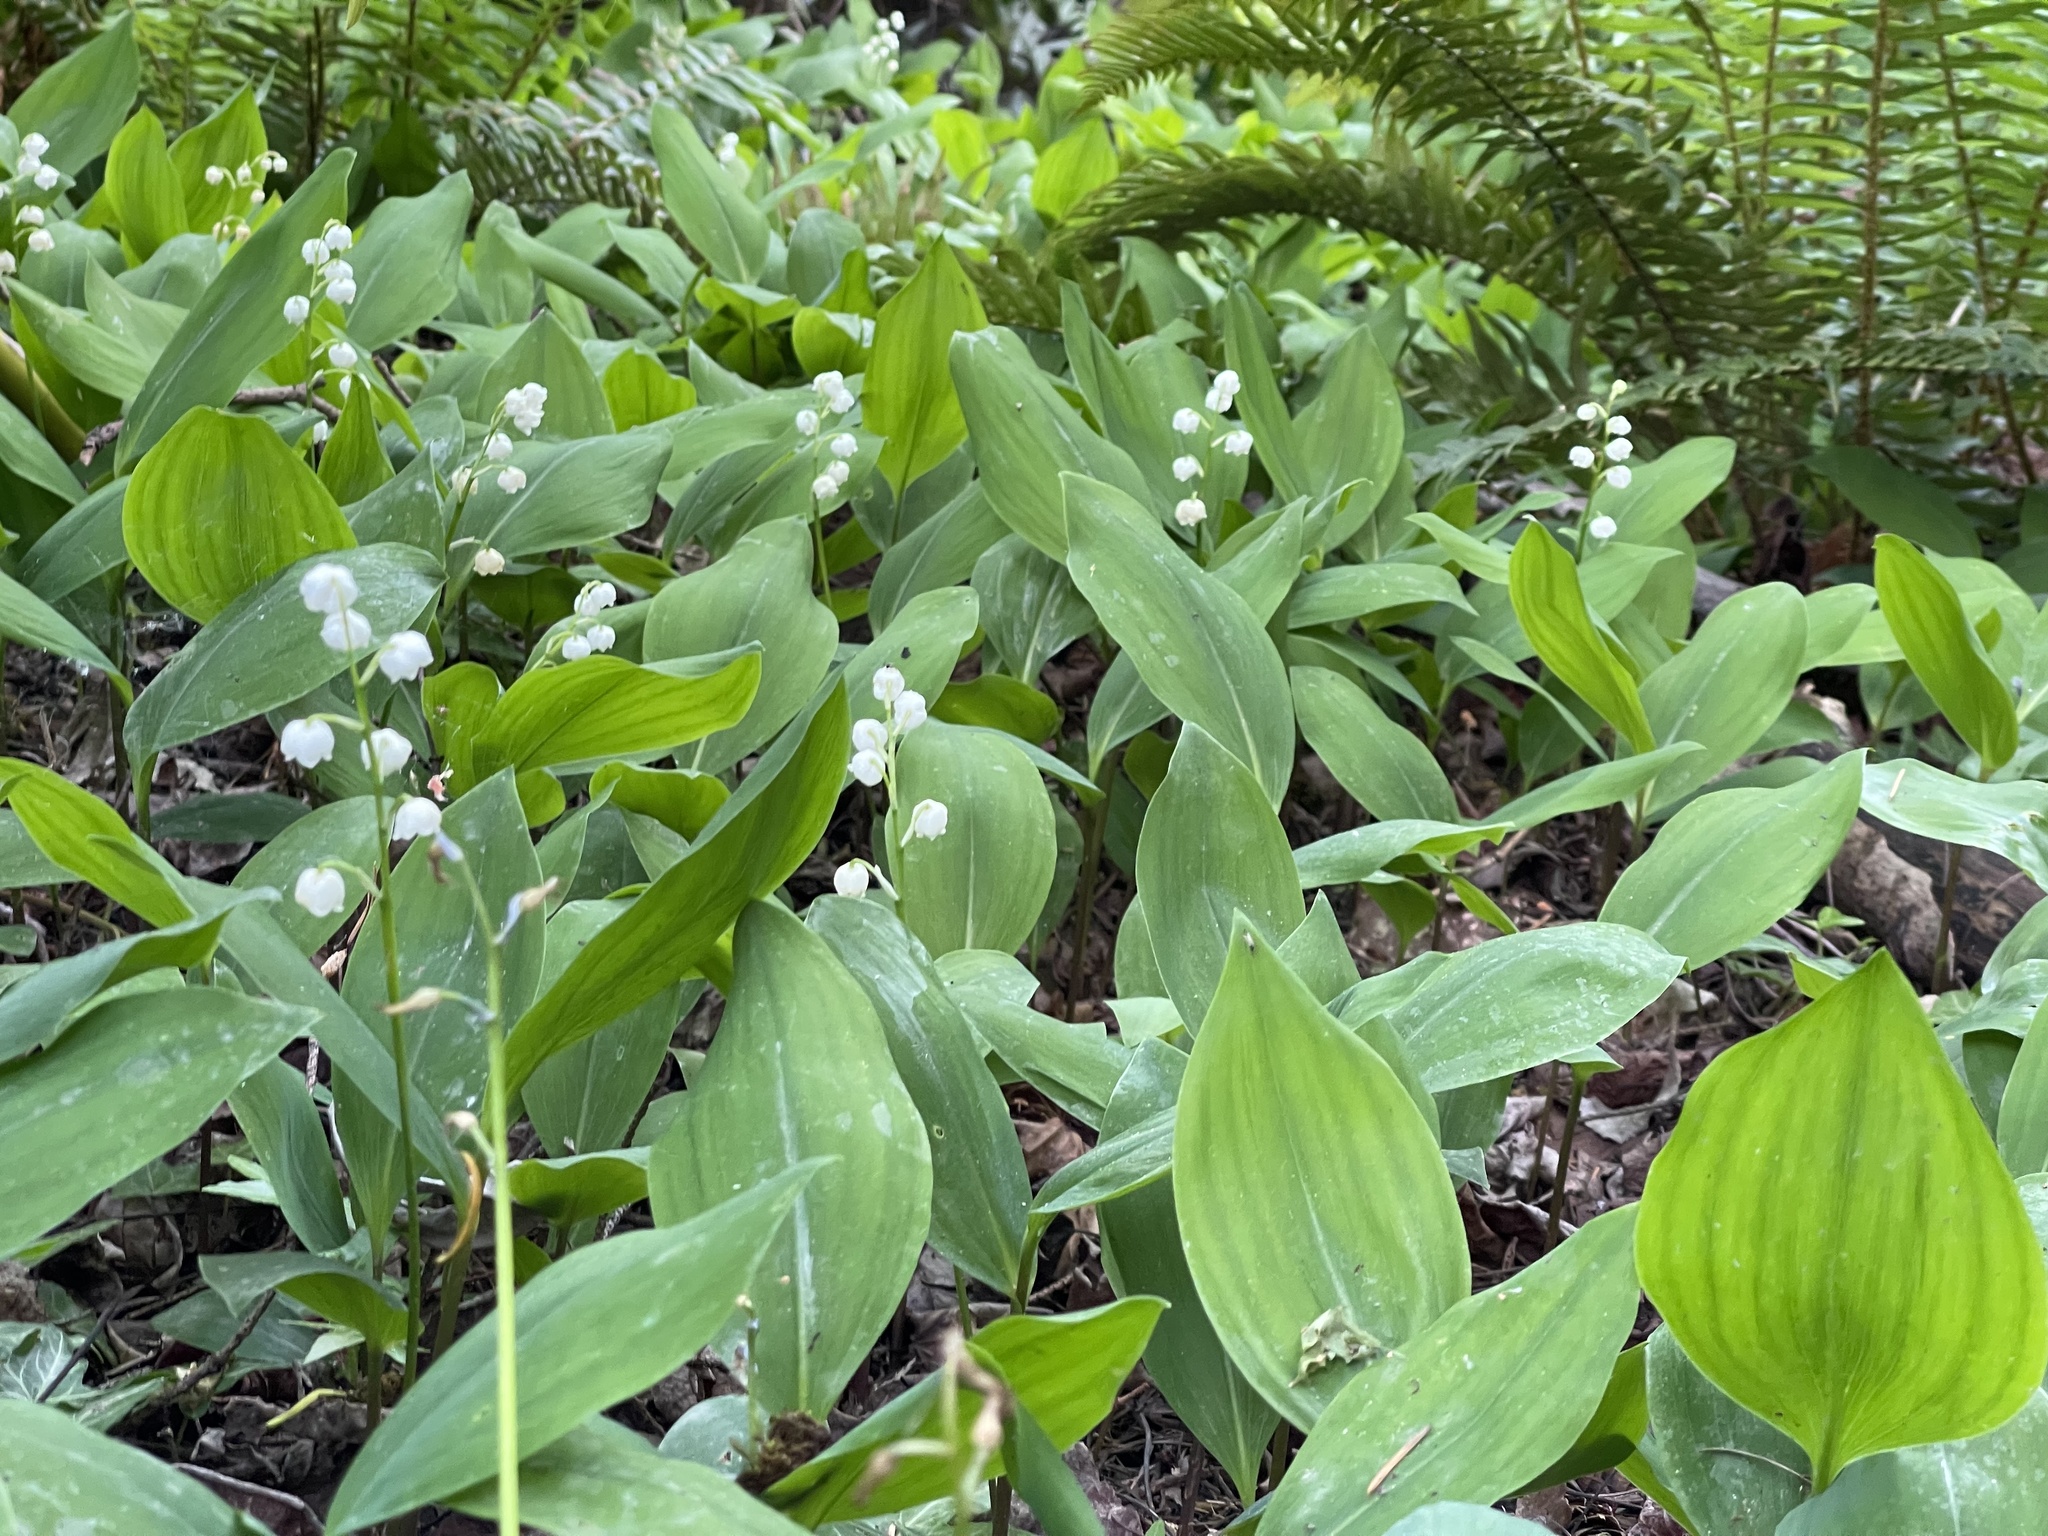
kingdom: Plantae
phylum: Tracheophyta
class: Liliopsida
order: Asparagales
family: Asparagaceae
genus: Convallaria
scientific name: Convallaria majalis
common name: Lily-of-the-valley
